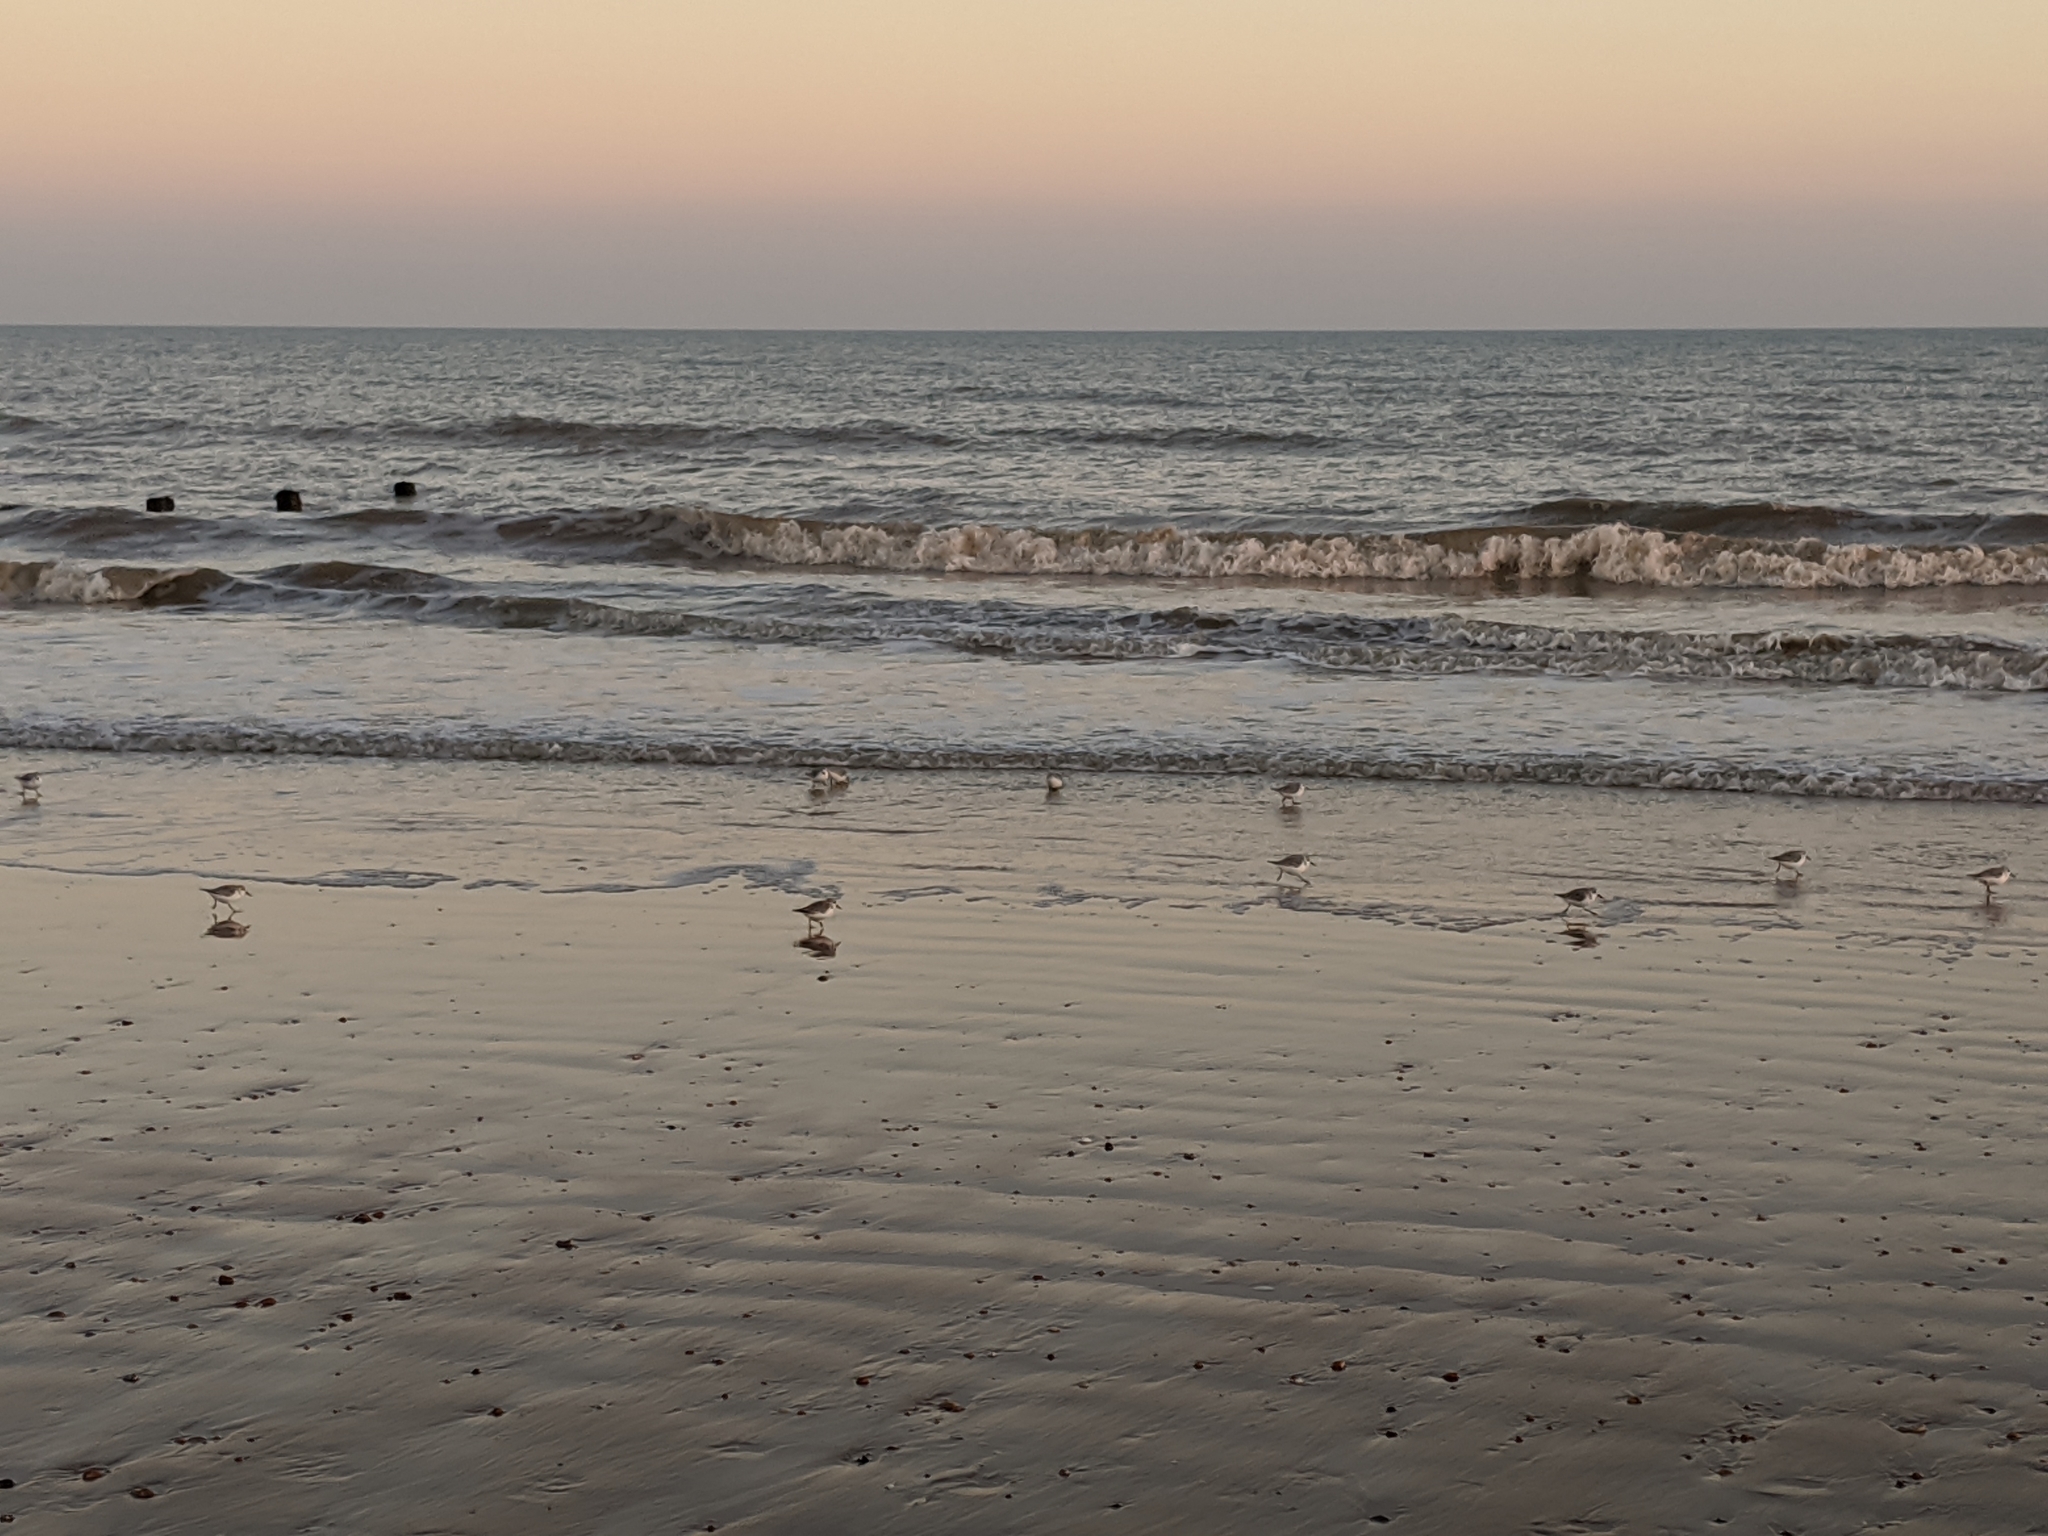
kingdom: Animalia
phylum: Chordata
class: Aves
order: Charadriiformes
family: Scolopacidae
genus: Calidris
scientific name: Calidris alba
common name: Sanderling
